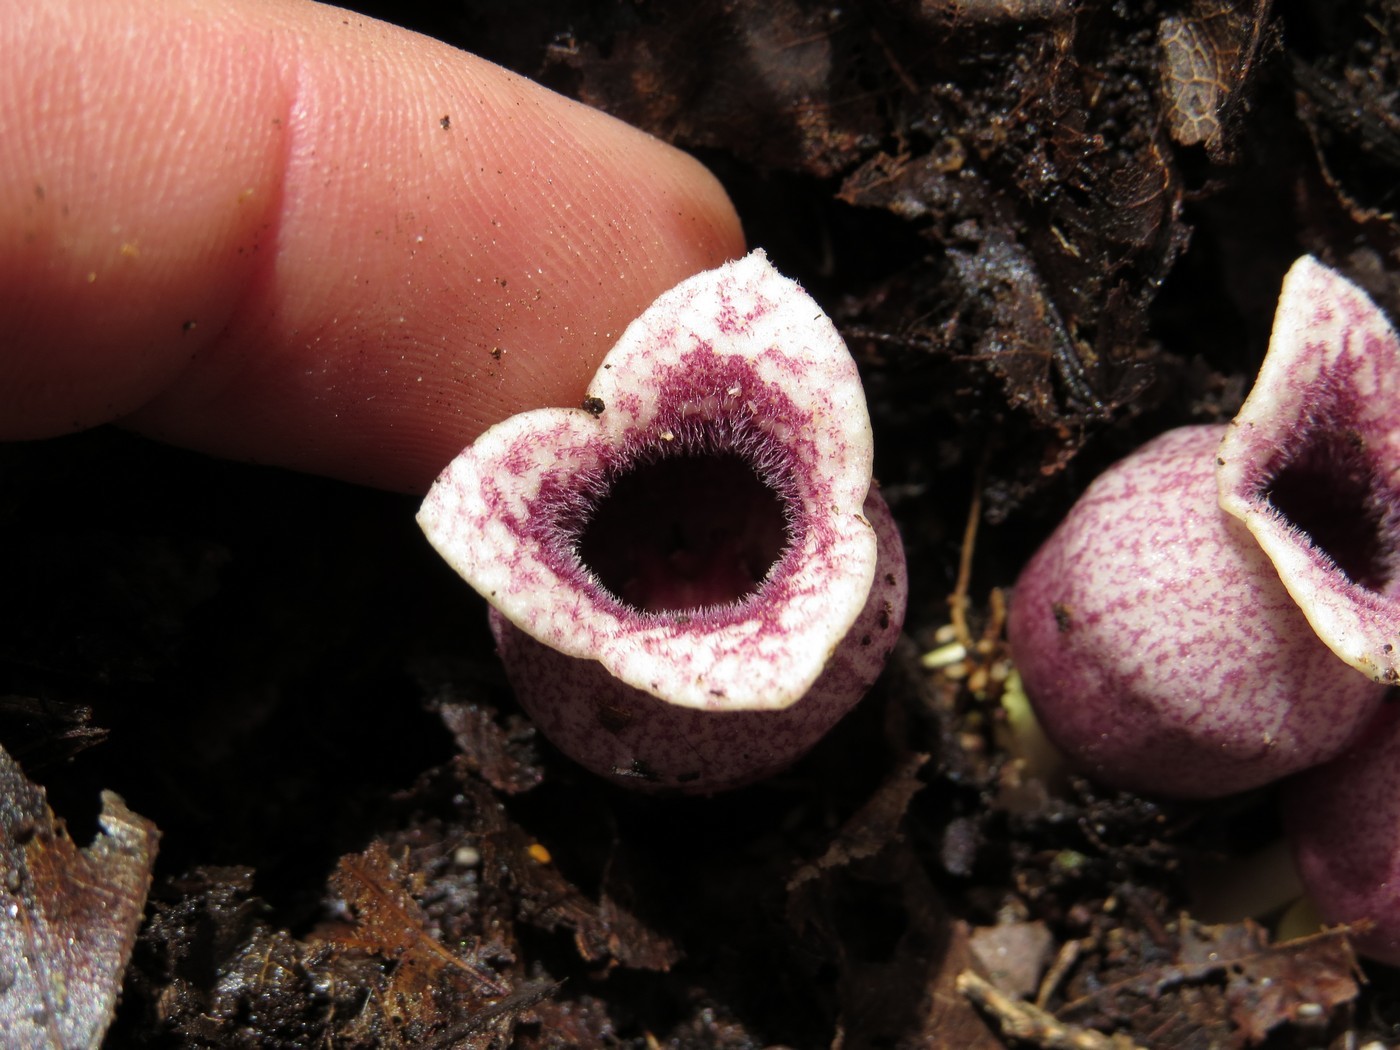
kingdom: Plantae
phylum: Tracheophyta
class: Magnoliopsida
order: Piperales
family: Aristolochiaceae
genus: Hexastylis
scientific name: Hexastylis rhombiformis
